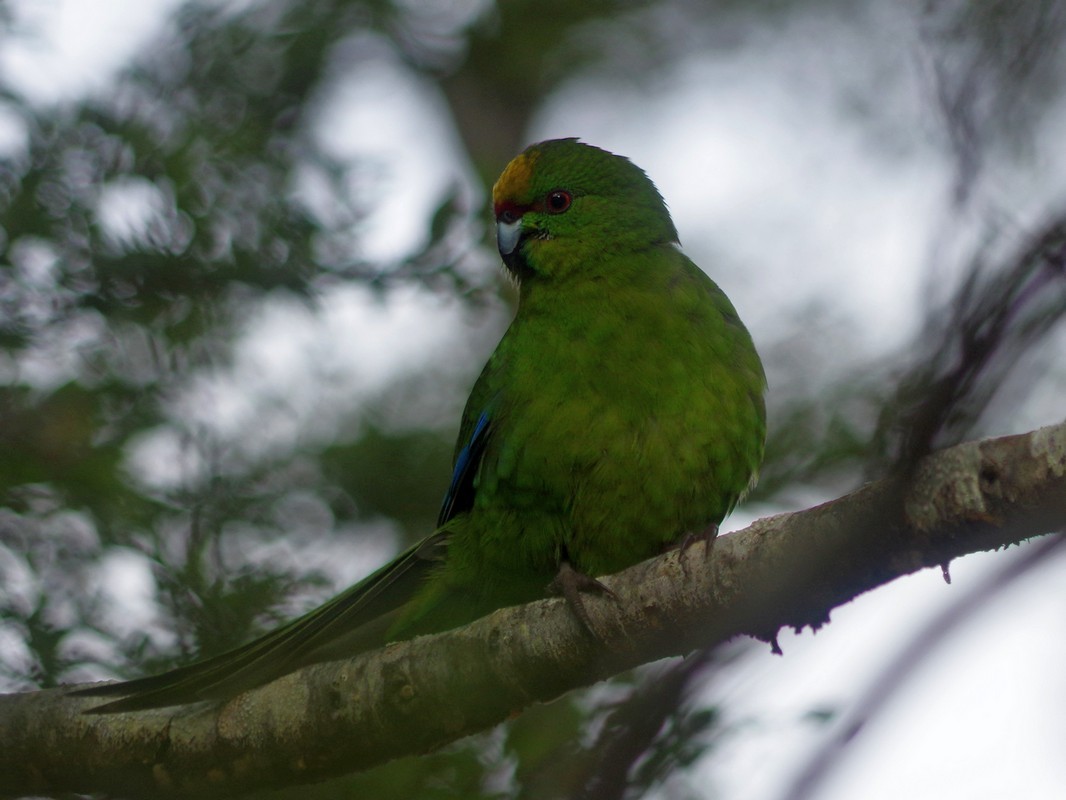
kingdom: Animalia
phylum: Chordata
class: Aves
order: Psittaciformes
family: Psittacidae
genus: Cyanoramphus
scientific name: Cyanoramphus auriceps
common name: Yellow-crowned parakeet
